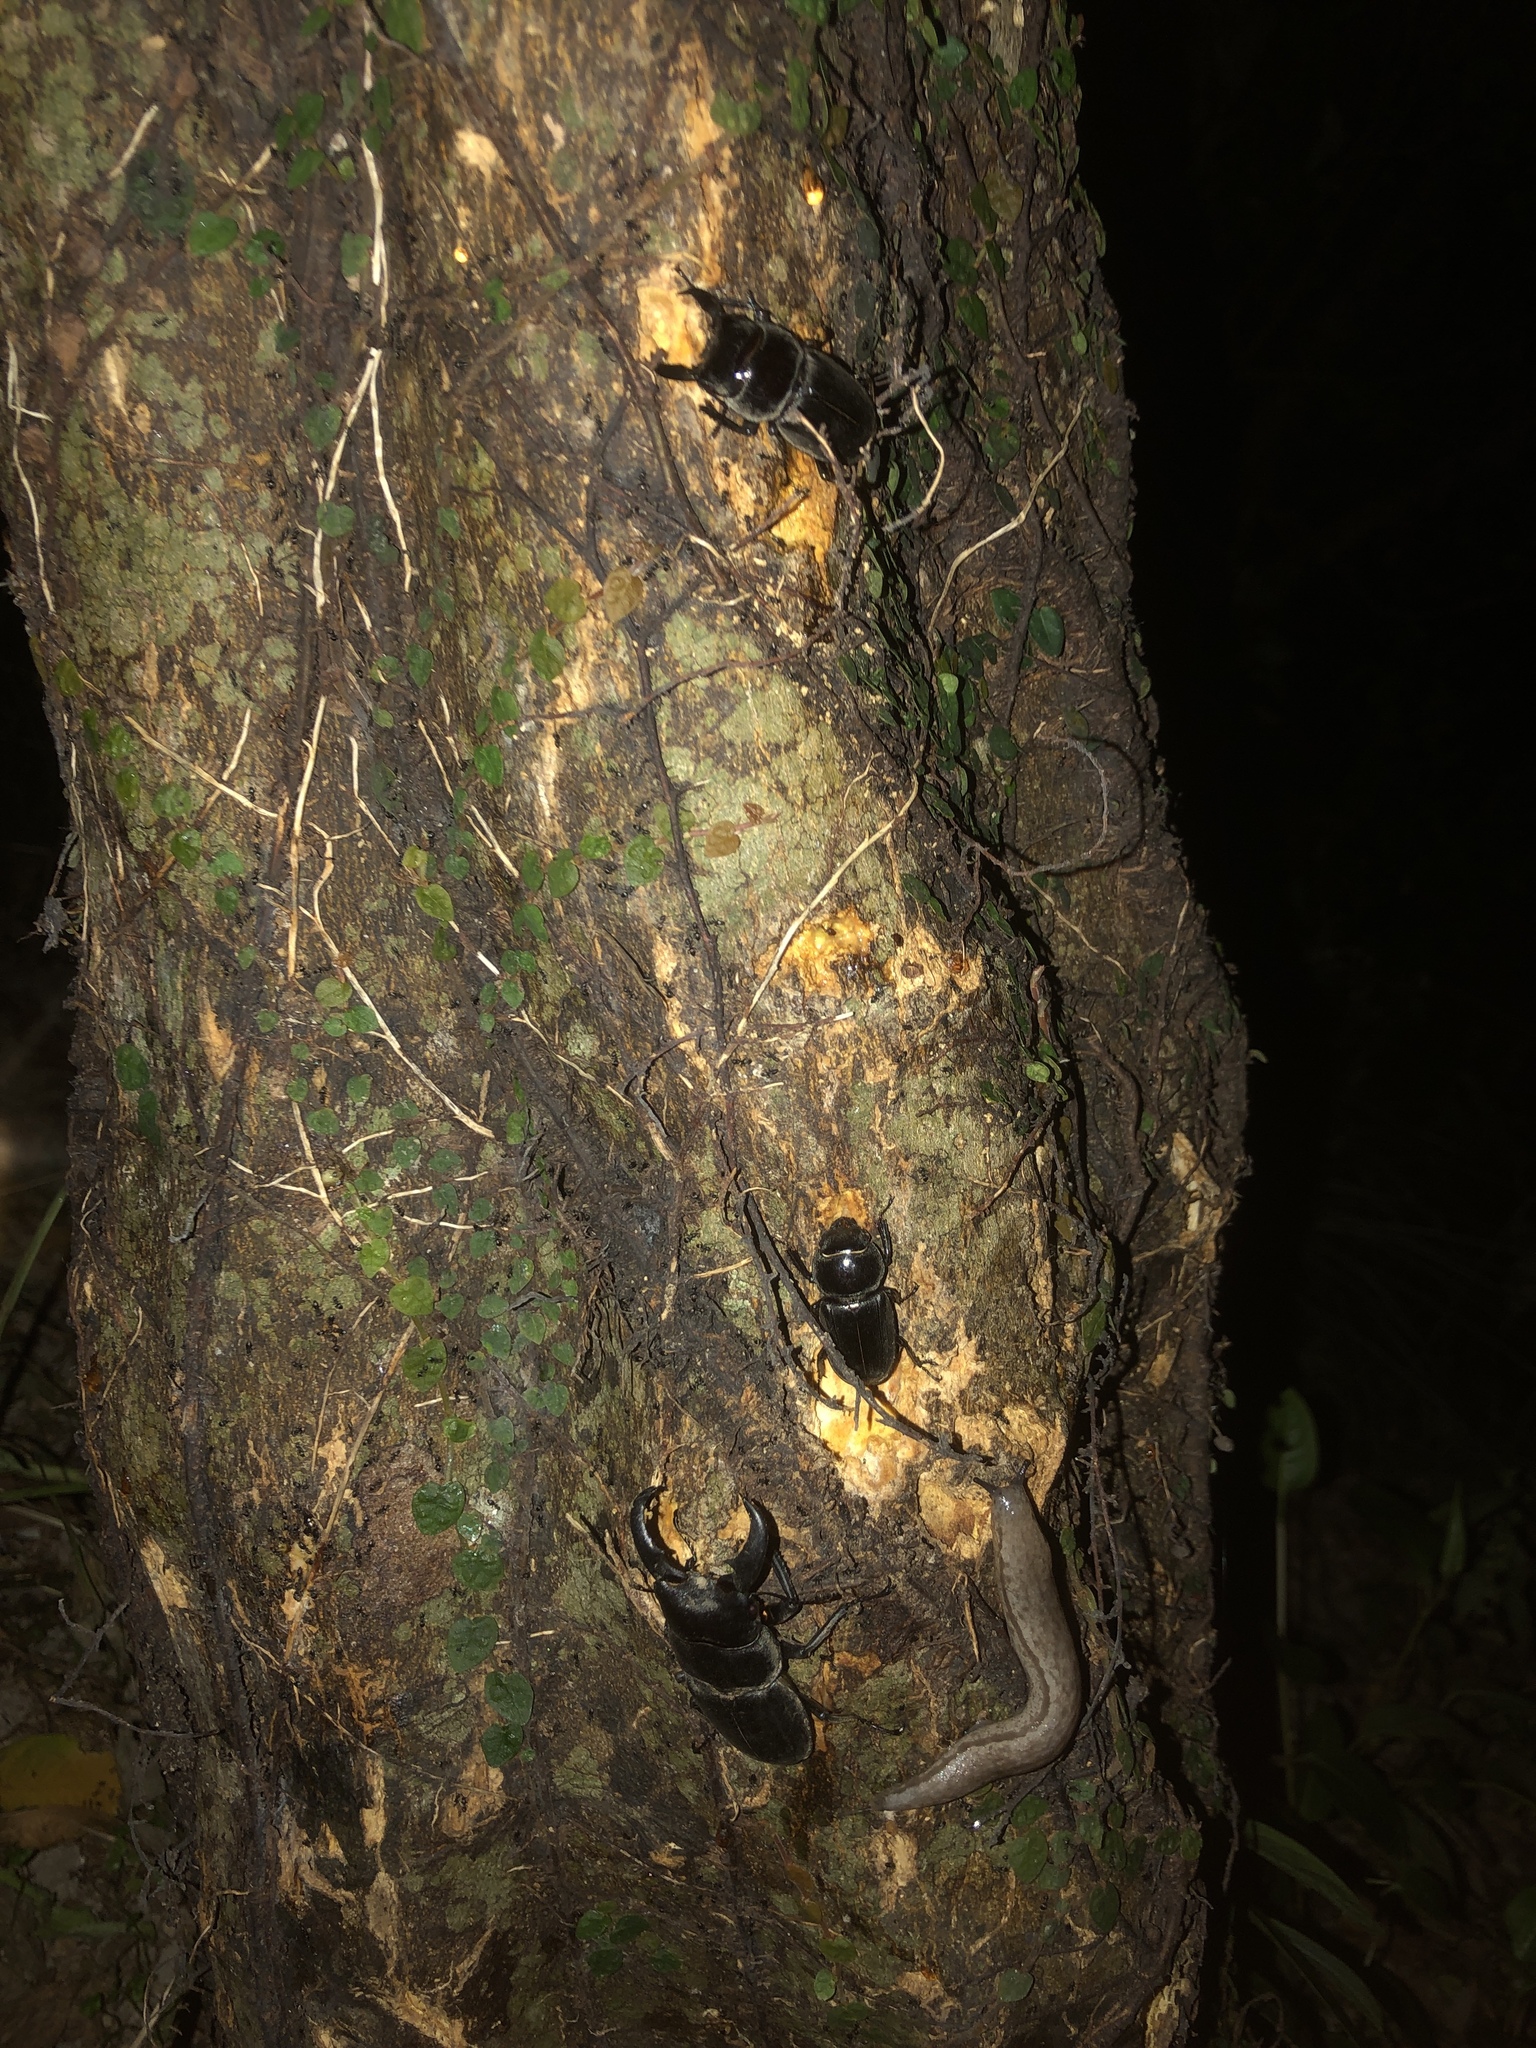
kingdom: Animalia
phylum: Arthropoda
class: Insecta
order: Coleoptera
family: Lucanidae
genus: Serrognathus
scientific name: Serrognathus titanus
